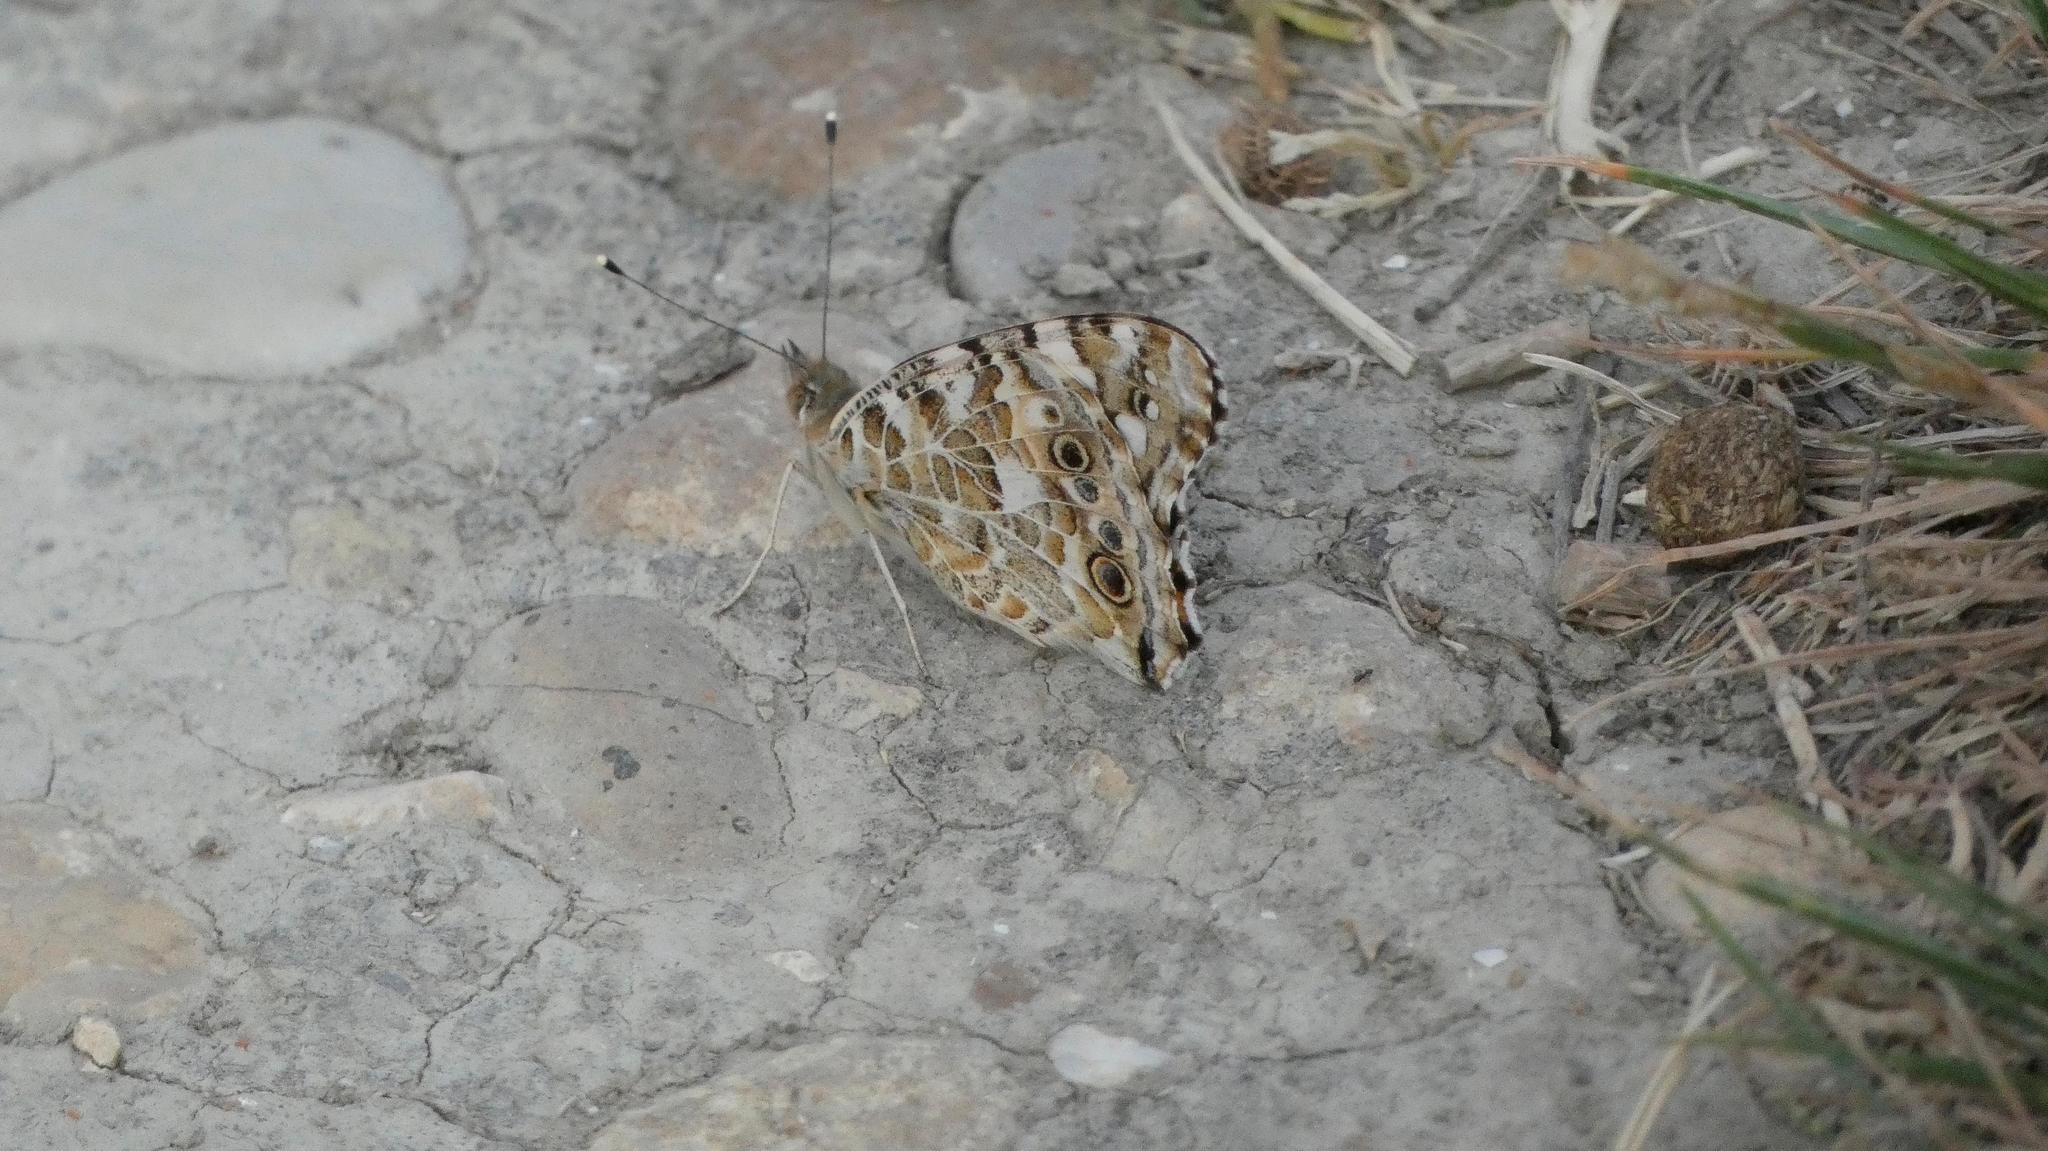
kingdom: Animalia
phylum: Arthropoda
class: Insecta
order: Lepidoptera
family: Nymphalidae
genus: Vanessa
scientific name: Vanessa cardui
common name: Painted lady
